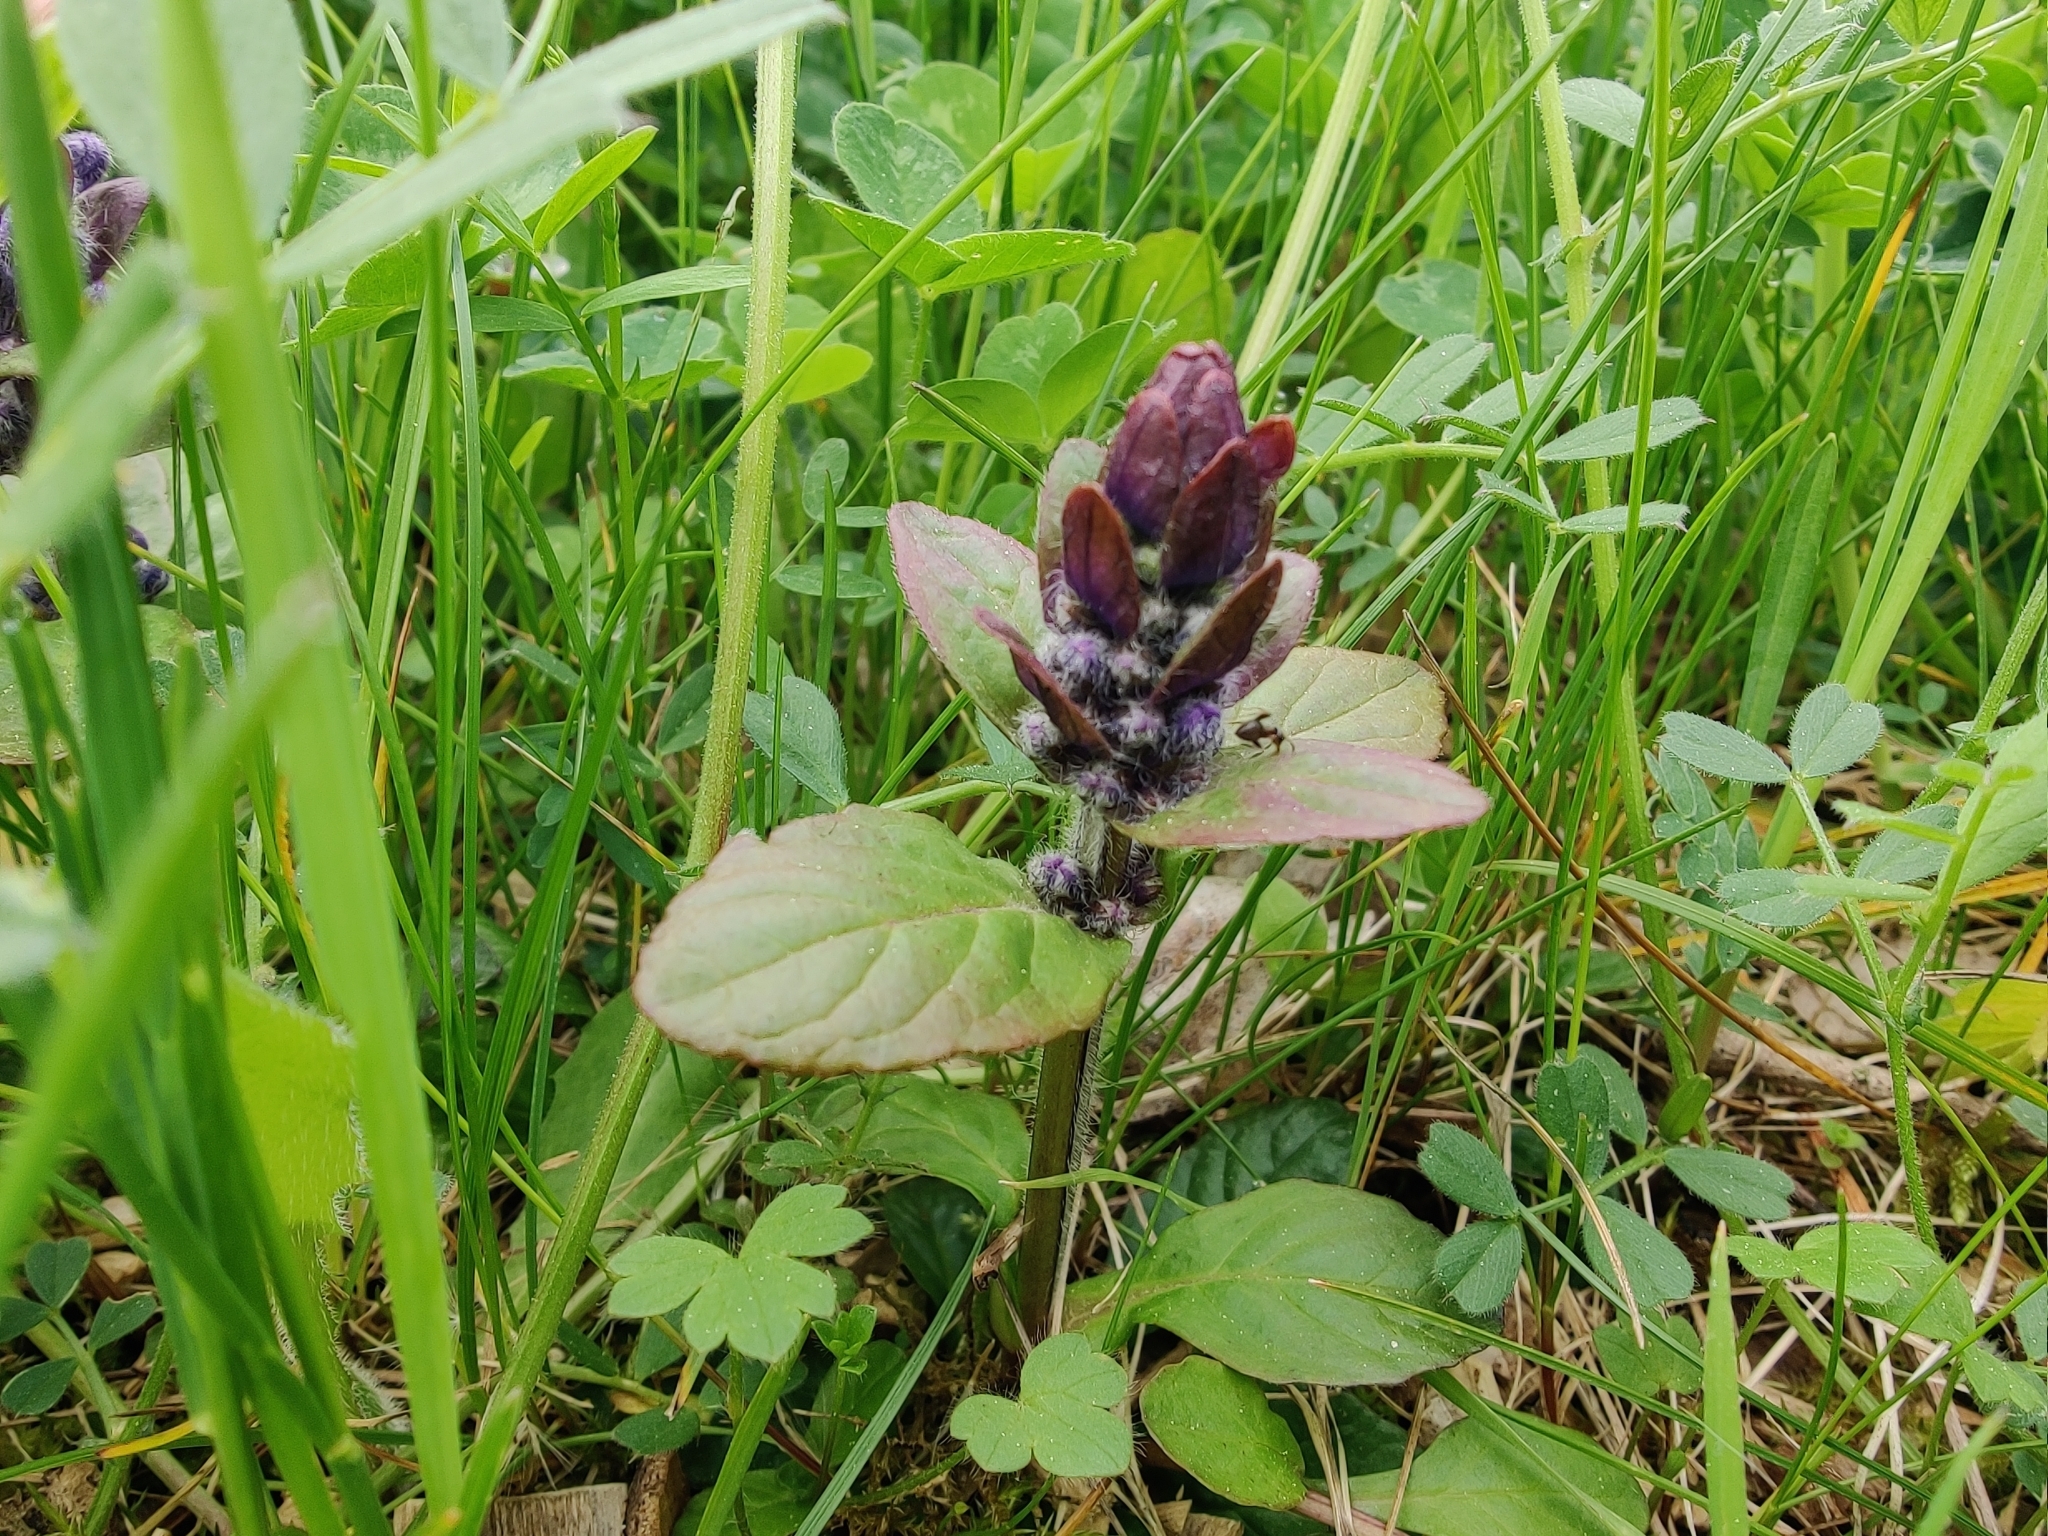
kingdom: Plantae
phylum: Tracheophyta
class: Magnoliopsida
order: Lamiales
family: Lamiaceae
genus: Ajuga
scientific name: Ajuga reptans
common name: Bugle
